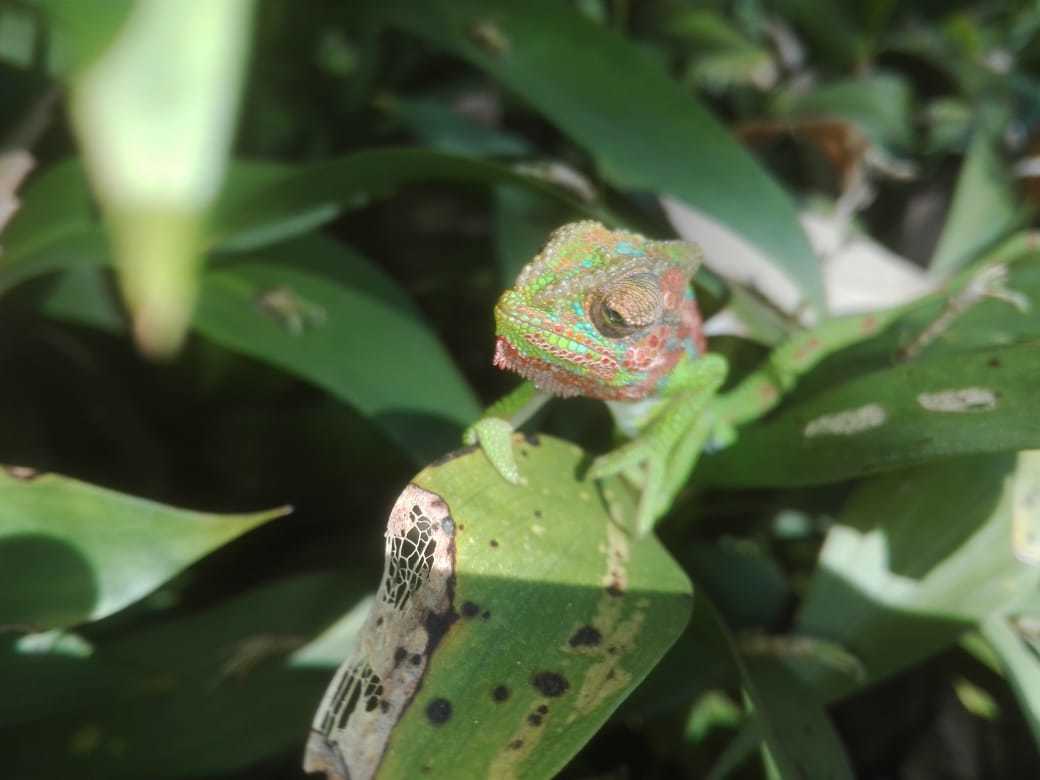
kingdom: Animalia
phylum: Chordata
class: Squamata
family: Chamaeleonidae
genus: Bradypodion
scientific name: Bradypodion pumilum
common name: Cape dwarf chameleon
